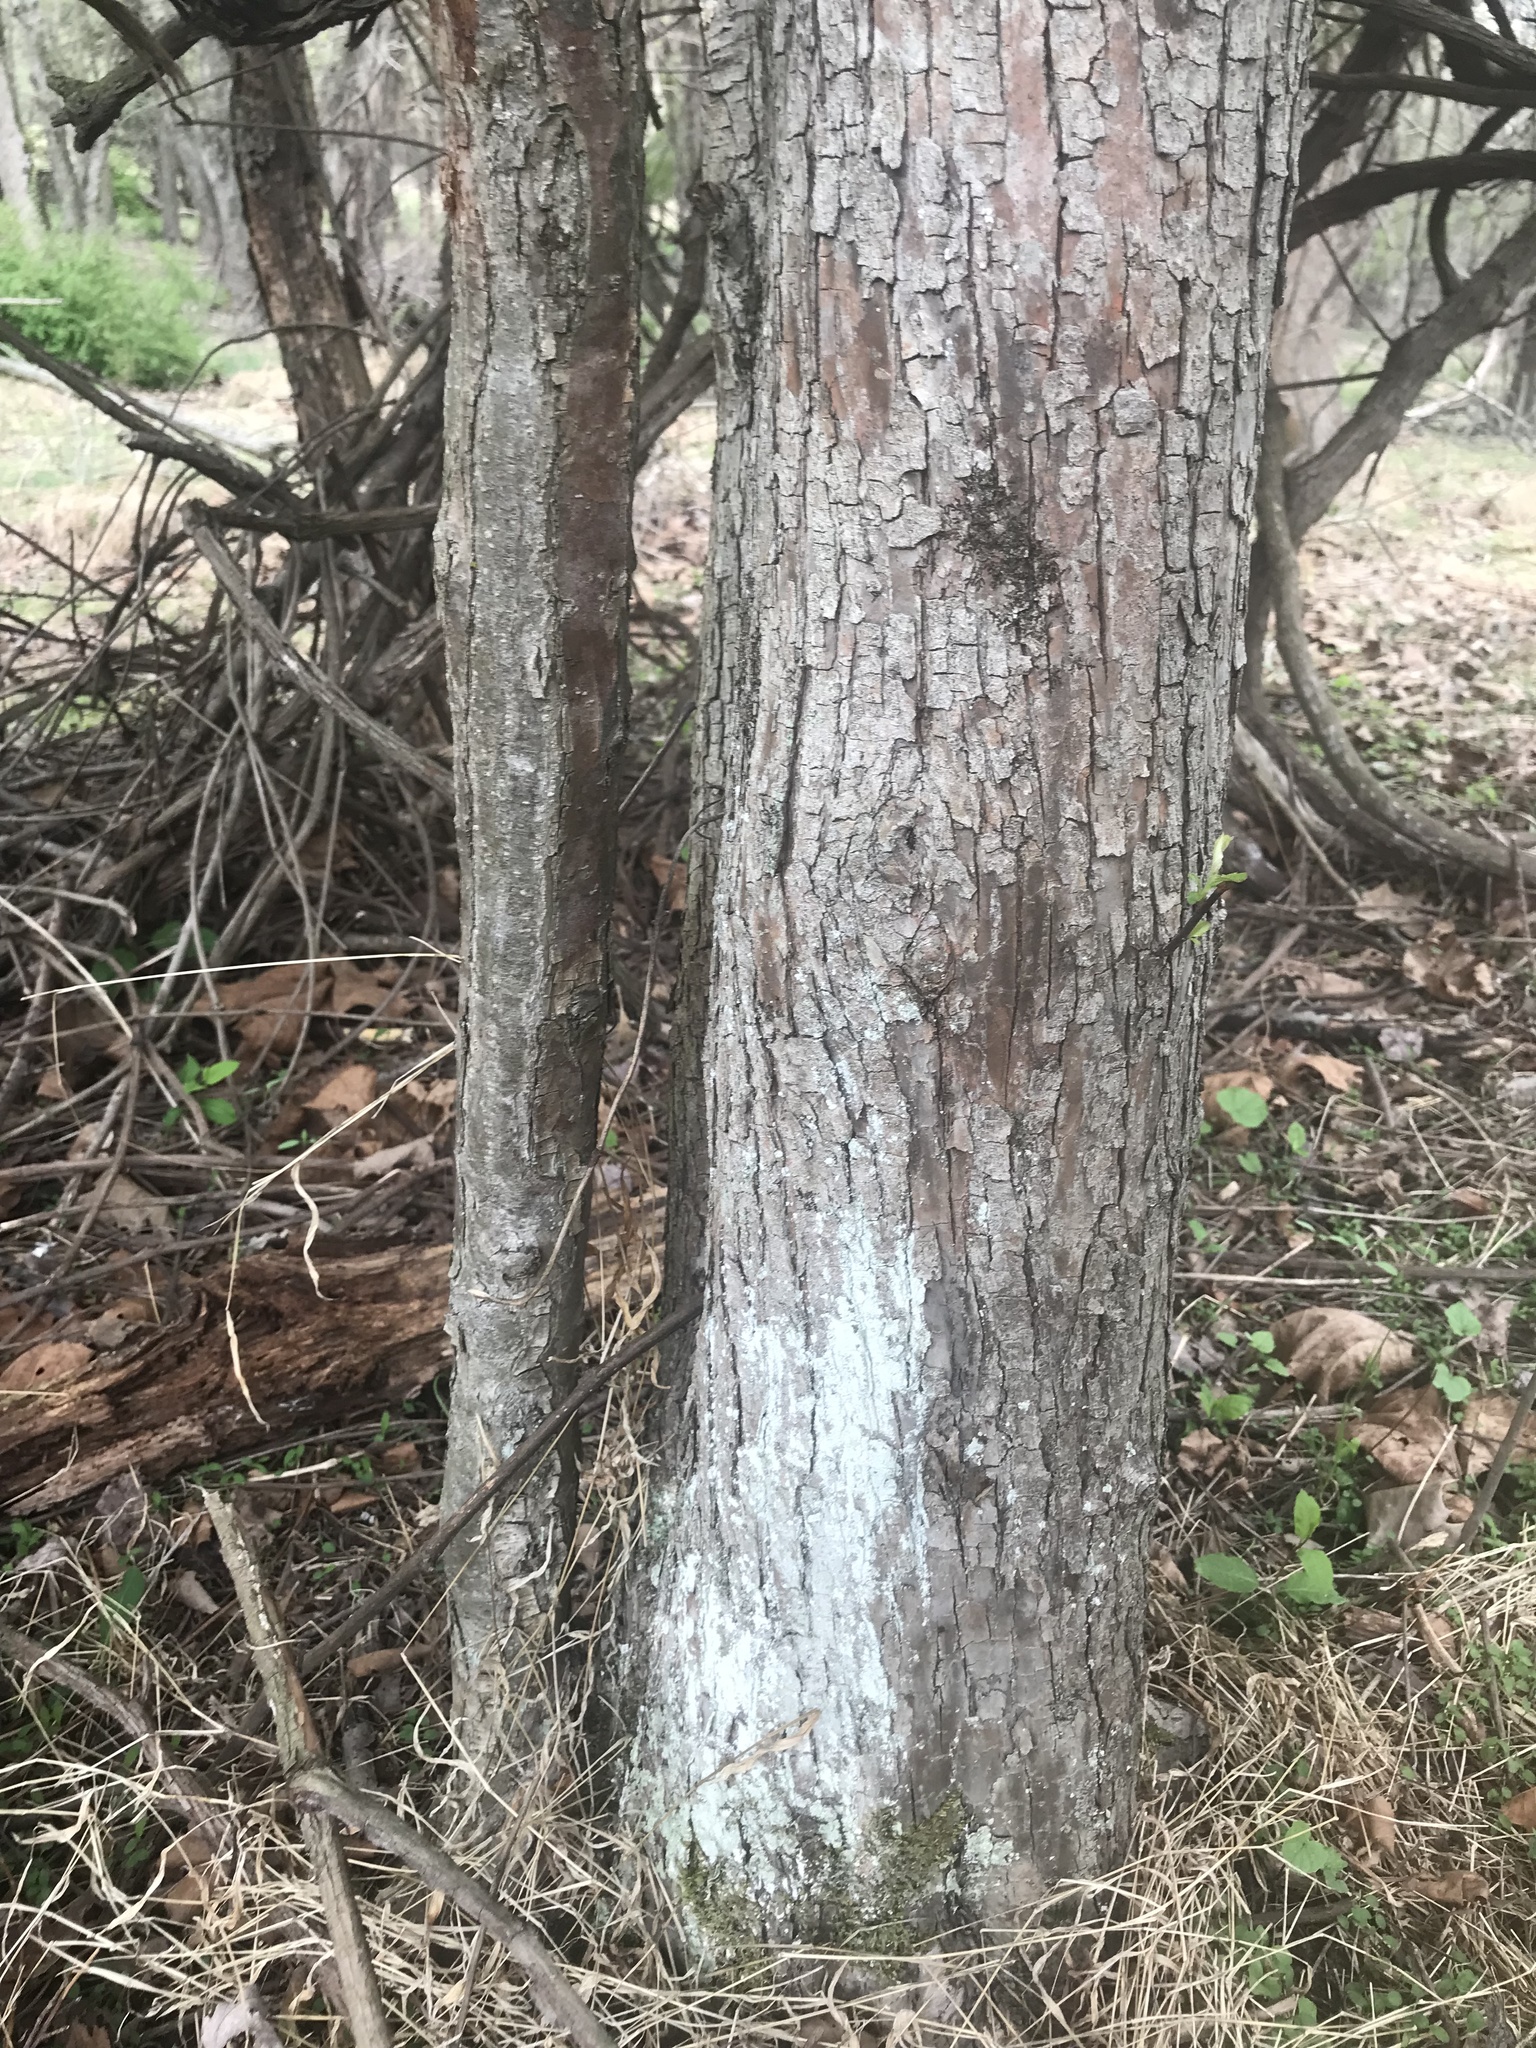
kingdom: Plantae
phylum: Tracheophyta
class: Magnoliopsida
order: Rosales
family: Rosaceae
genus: Malus
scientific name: Malus coronaria
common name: Sweet crab apple
